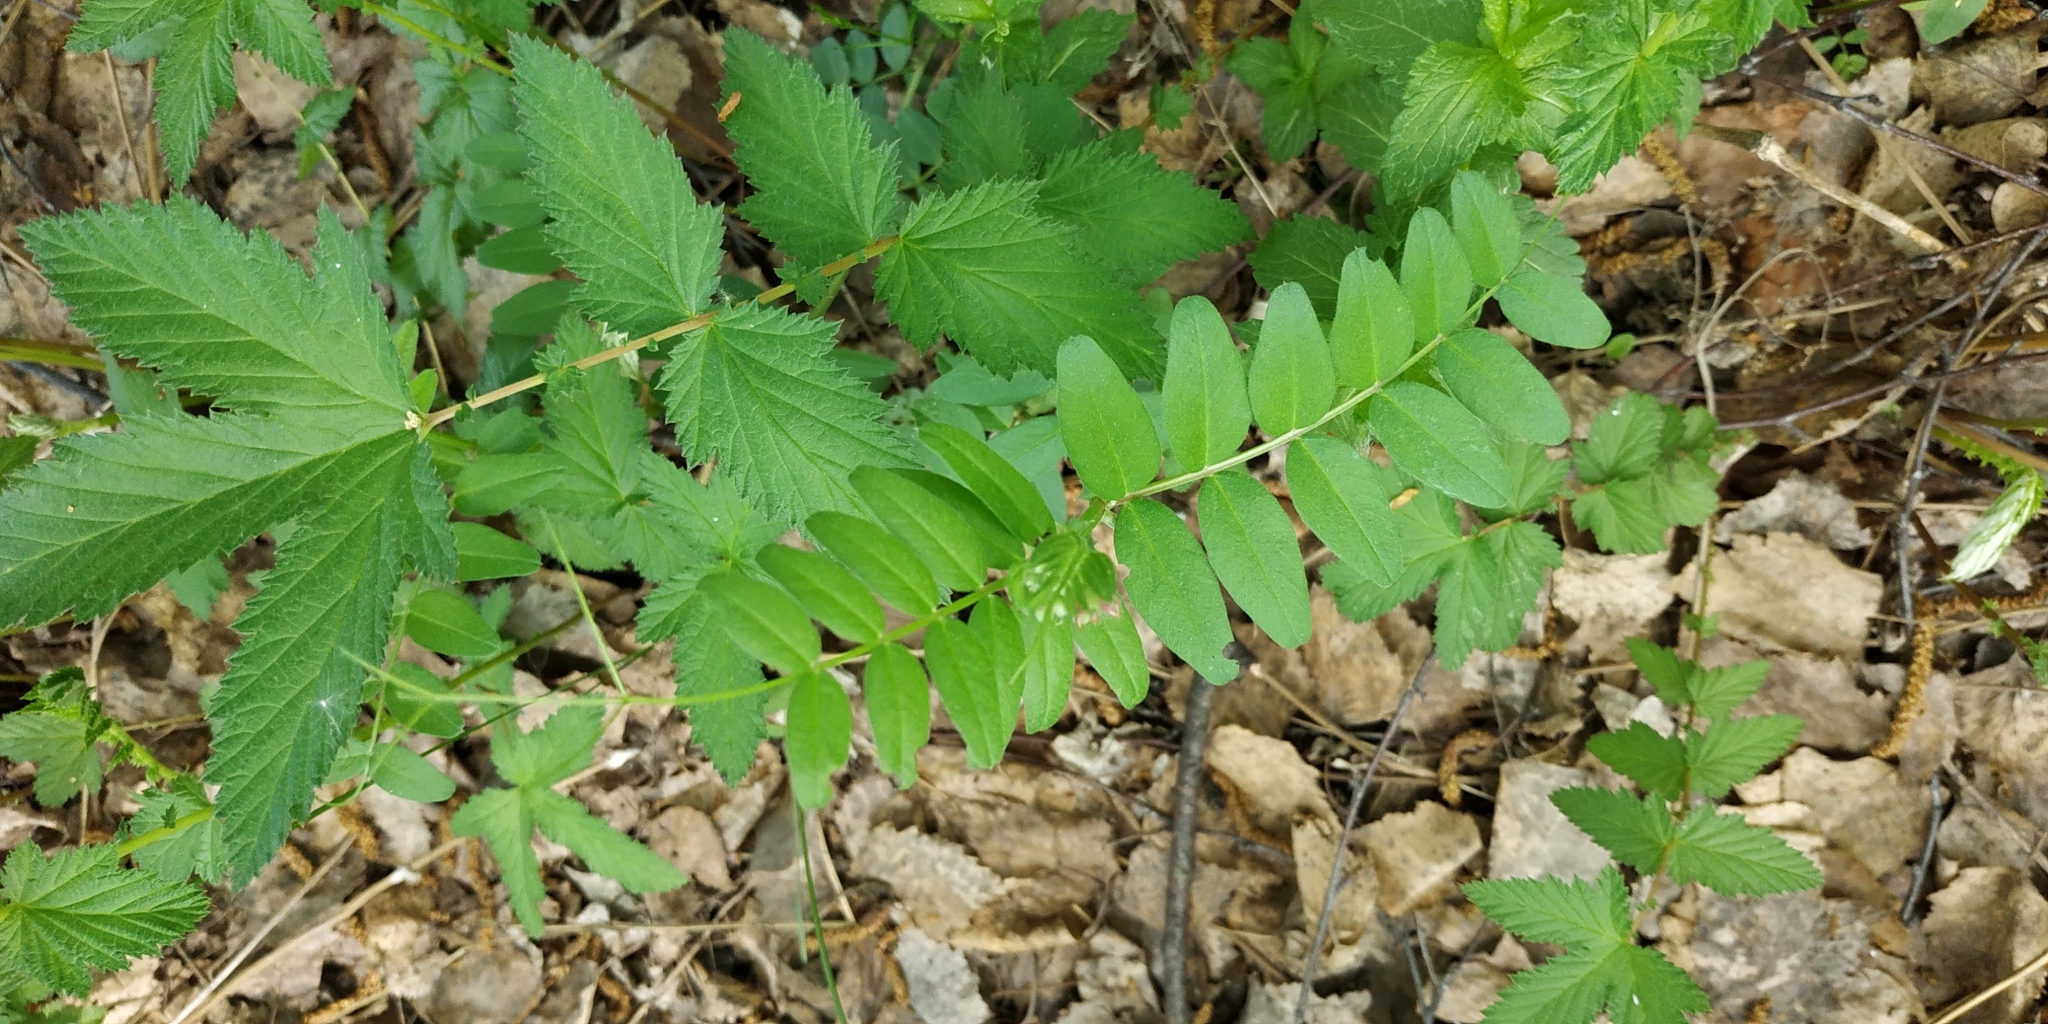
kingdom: Plantae
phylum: Tracheophyta
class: Magnoliopsida
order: Fabales
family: Fabaceae
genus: Vicia
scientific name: Vicia sepium
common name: Bush vetch
